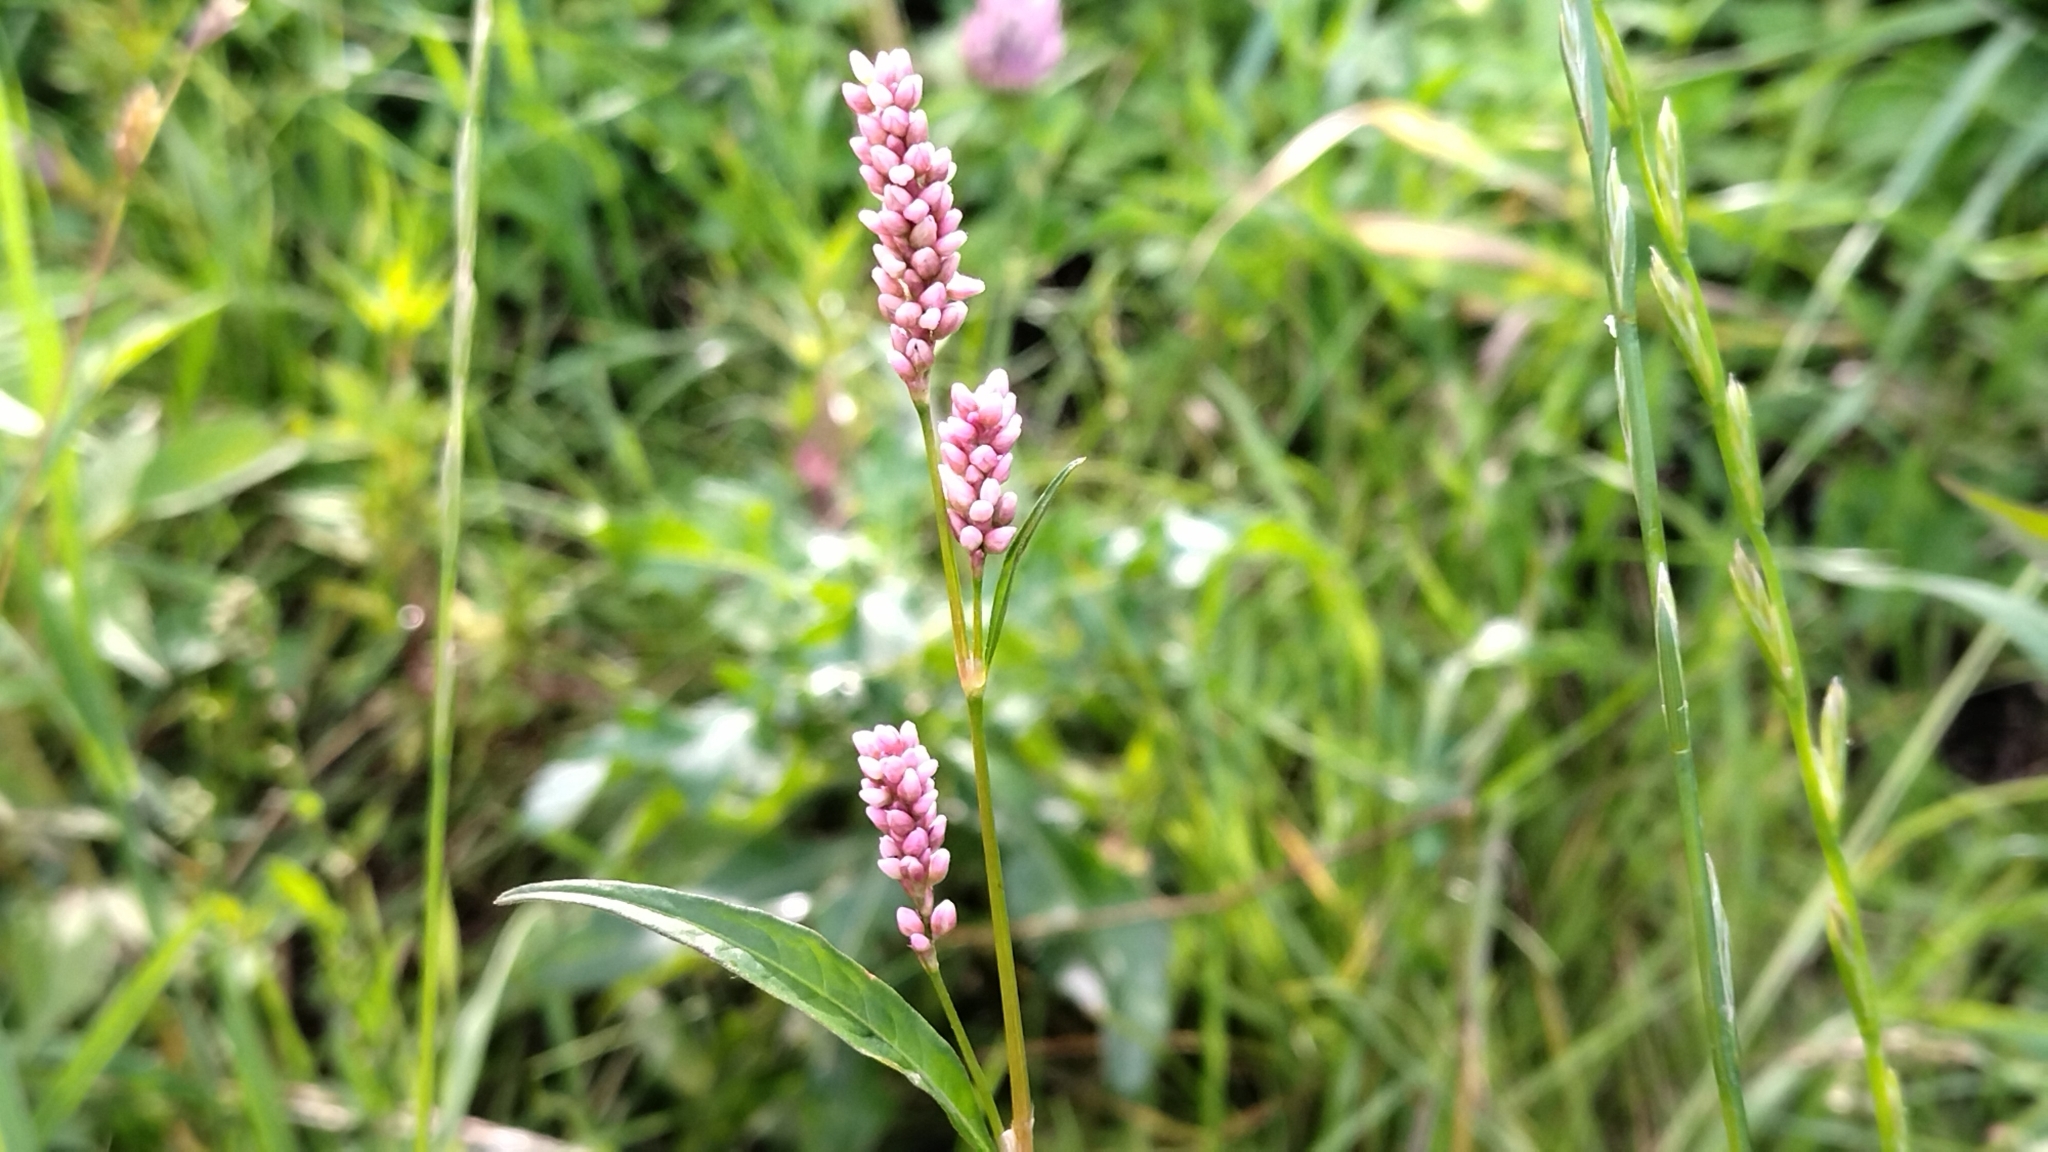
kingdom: Plantae
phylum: Tracheophyta
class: Magnoliopsida
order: Caryophyllales
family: Polygonaceae
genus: Persicaria
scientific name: Persicaria maculosa
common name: Redshank
